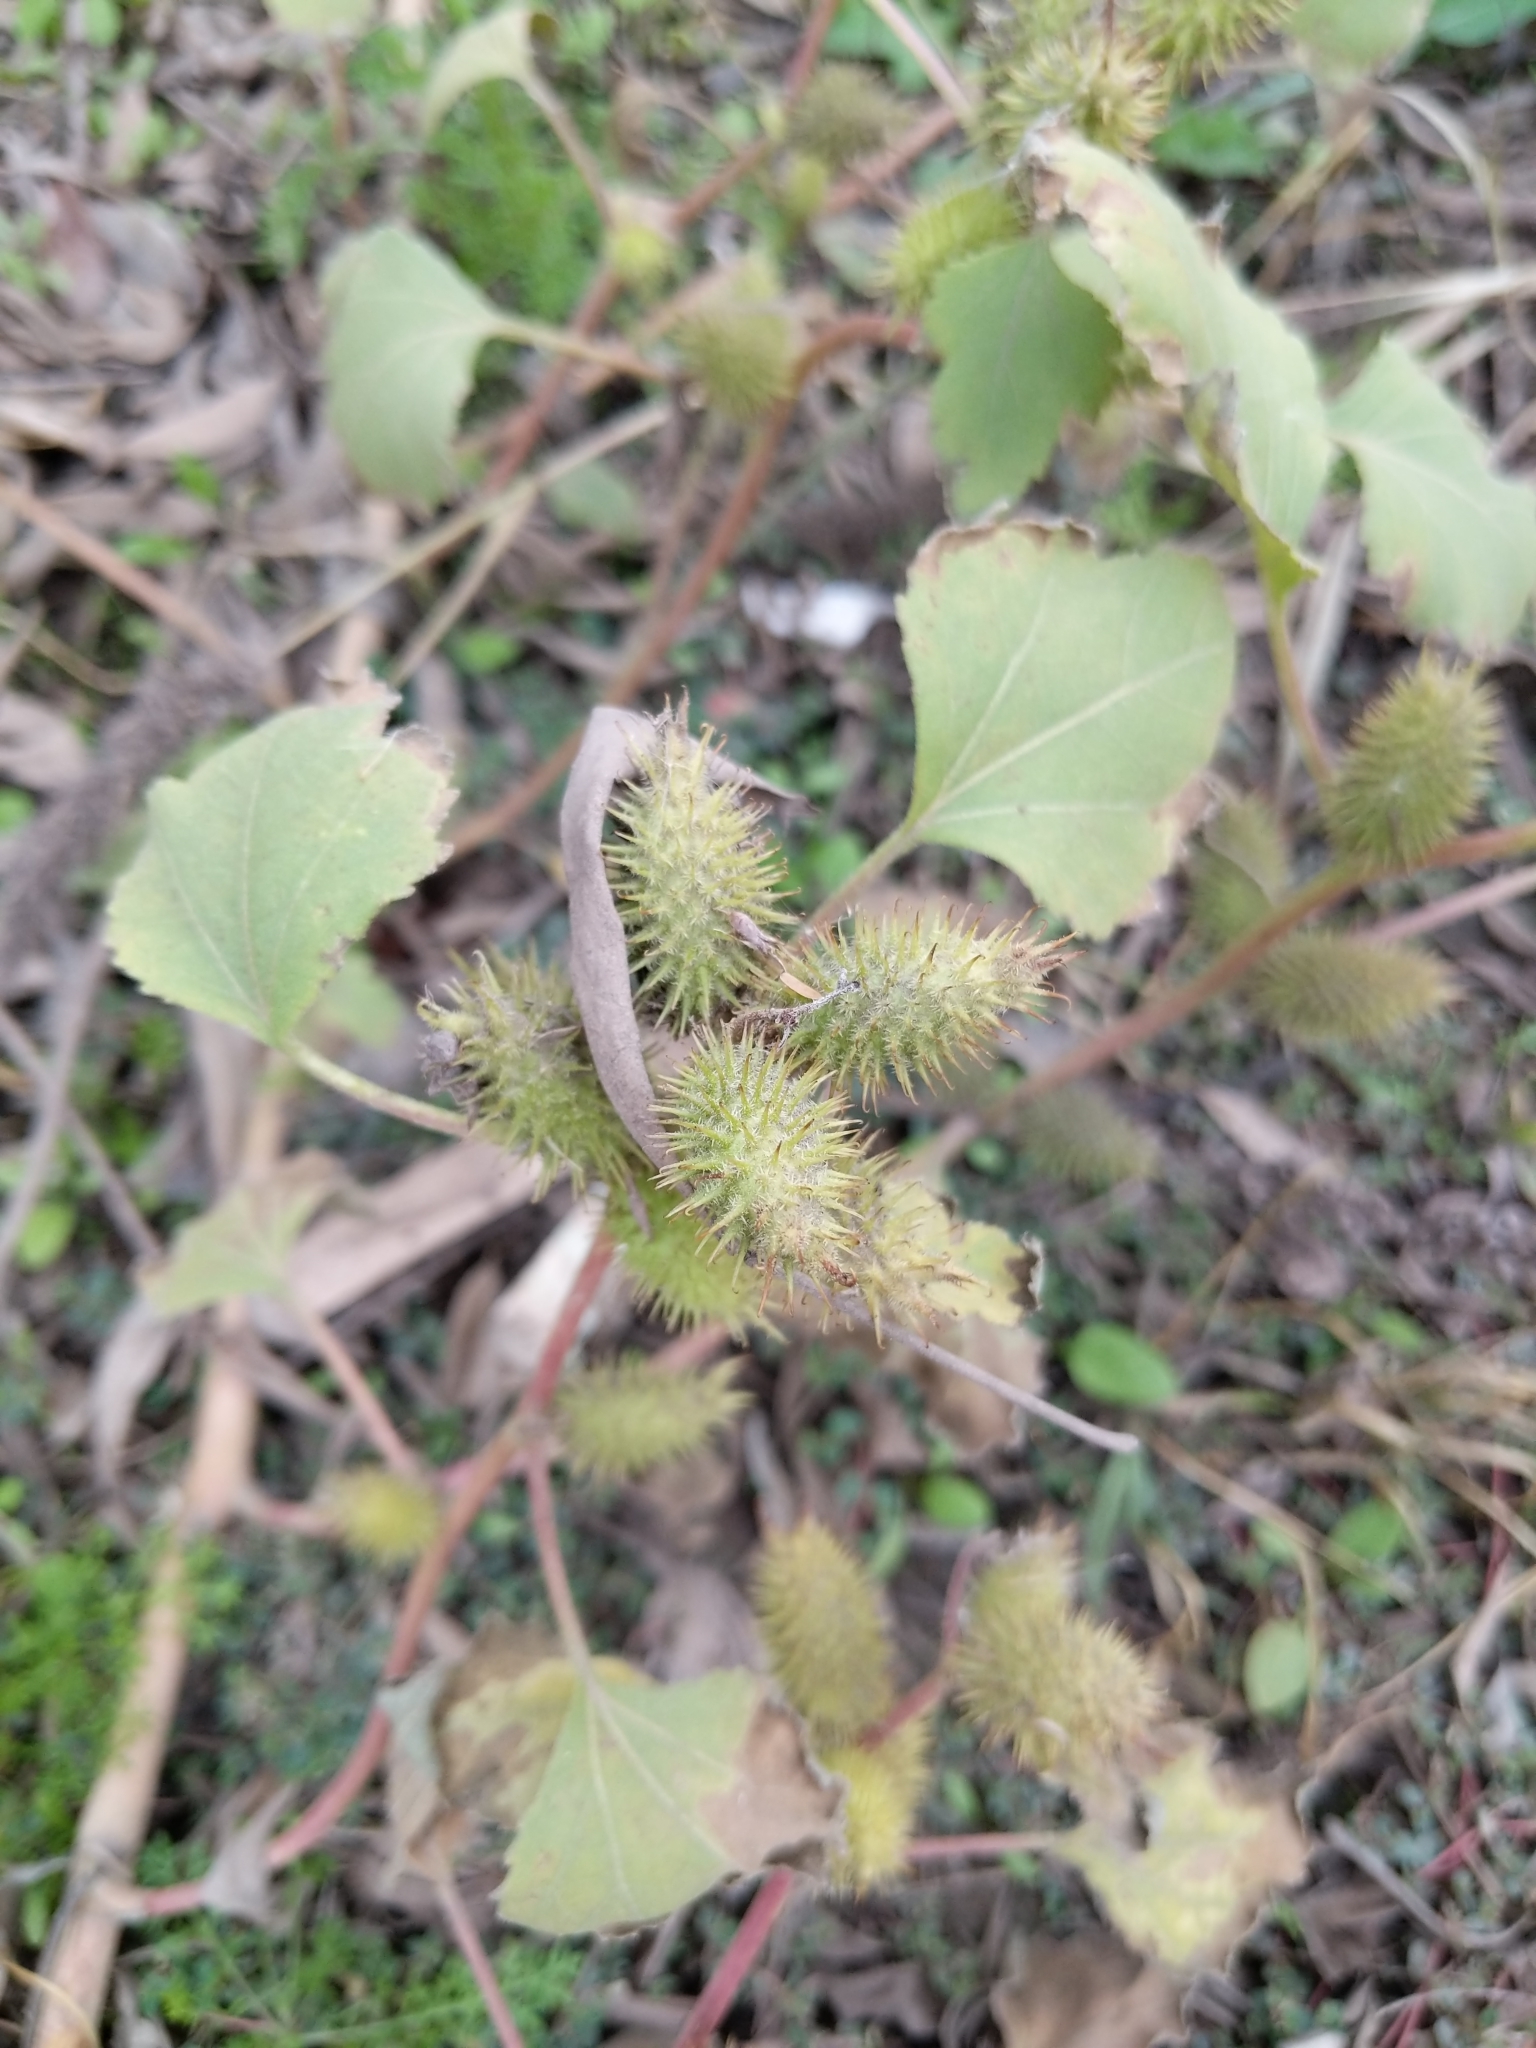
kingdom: Plantae
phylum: Tracheophyta
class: Magnoliopsida
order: Asterales
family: Asteraceae
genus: Xanthium
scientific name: Xanthium strumarium
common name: Rough cocklebur
